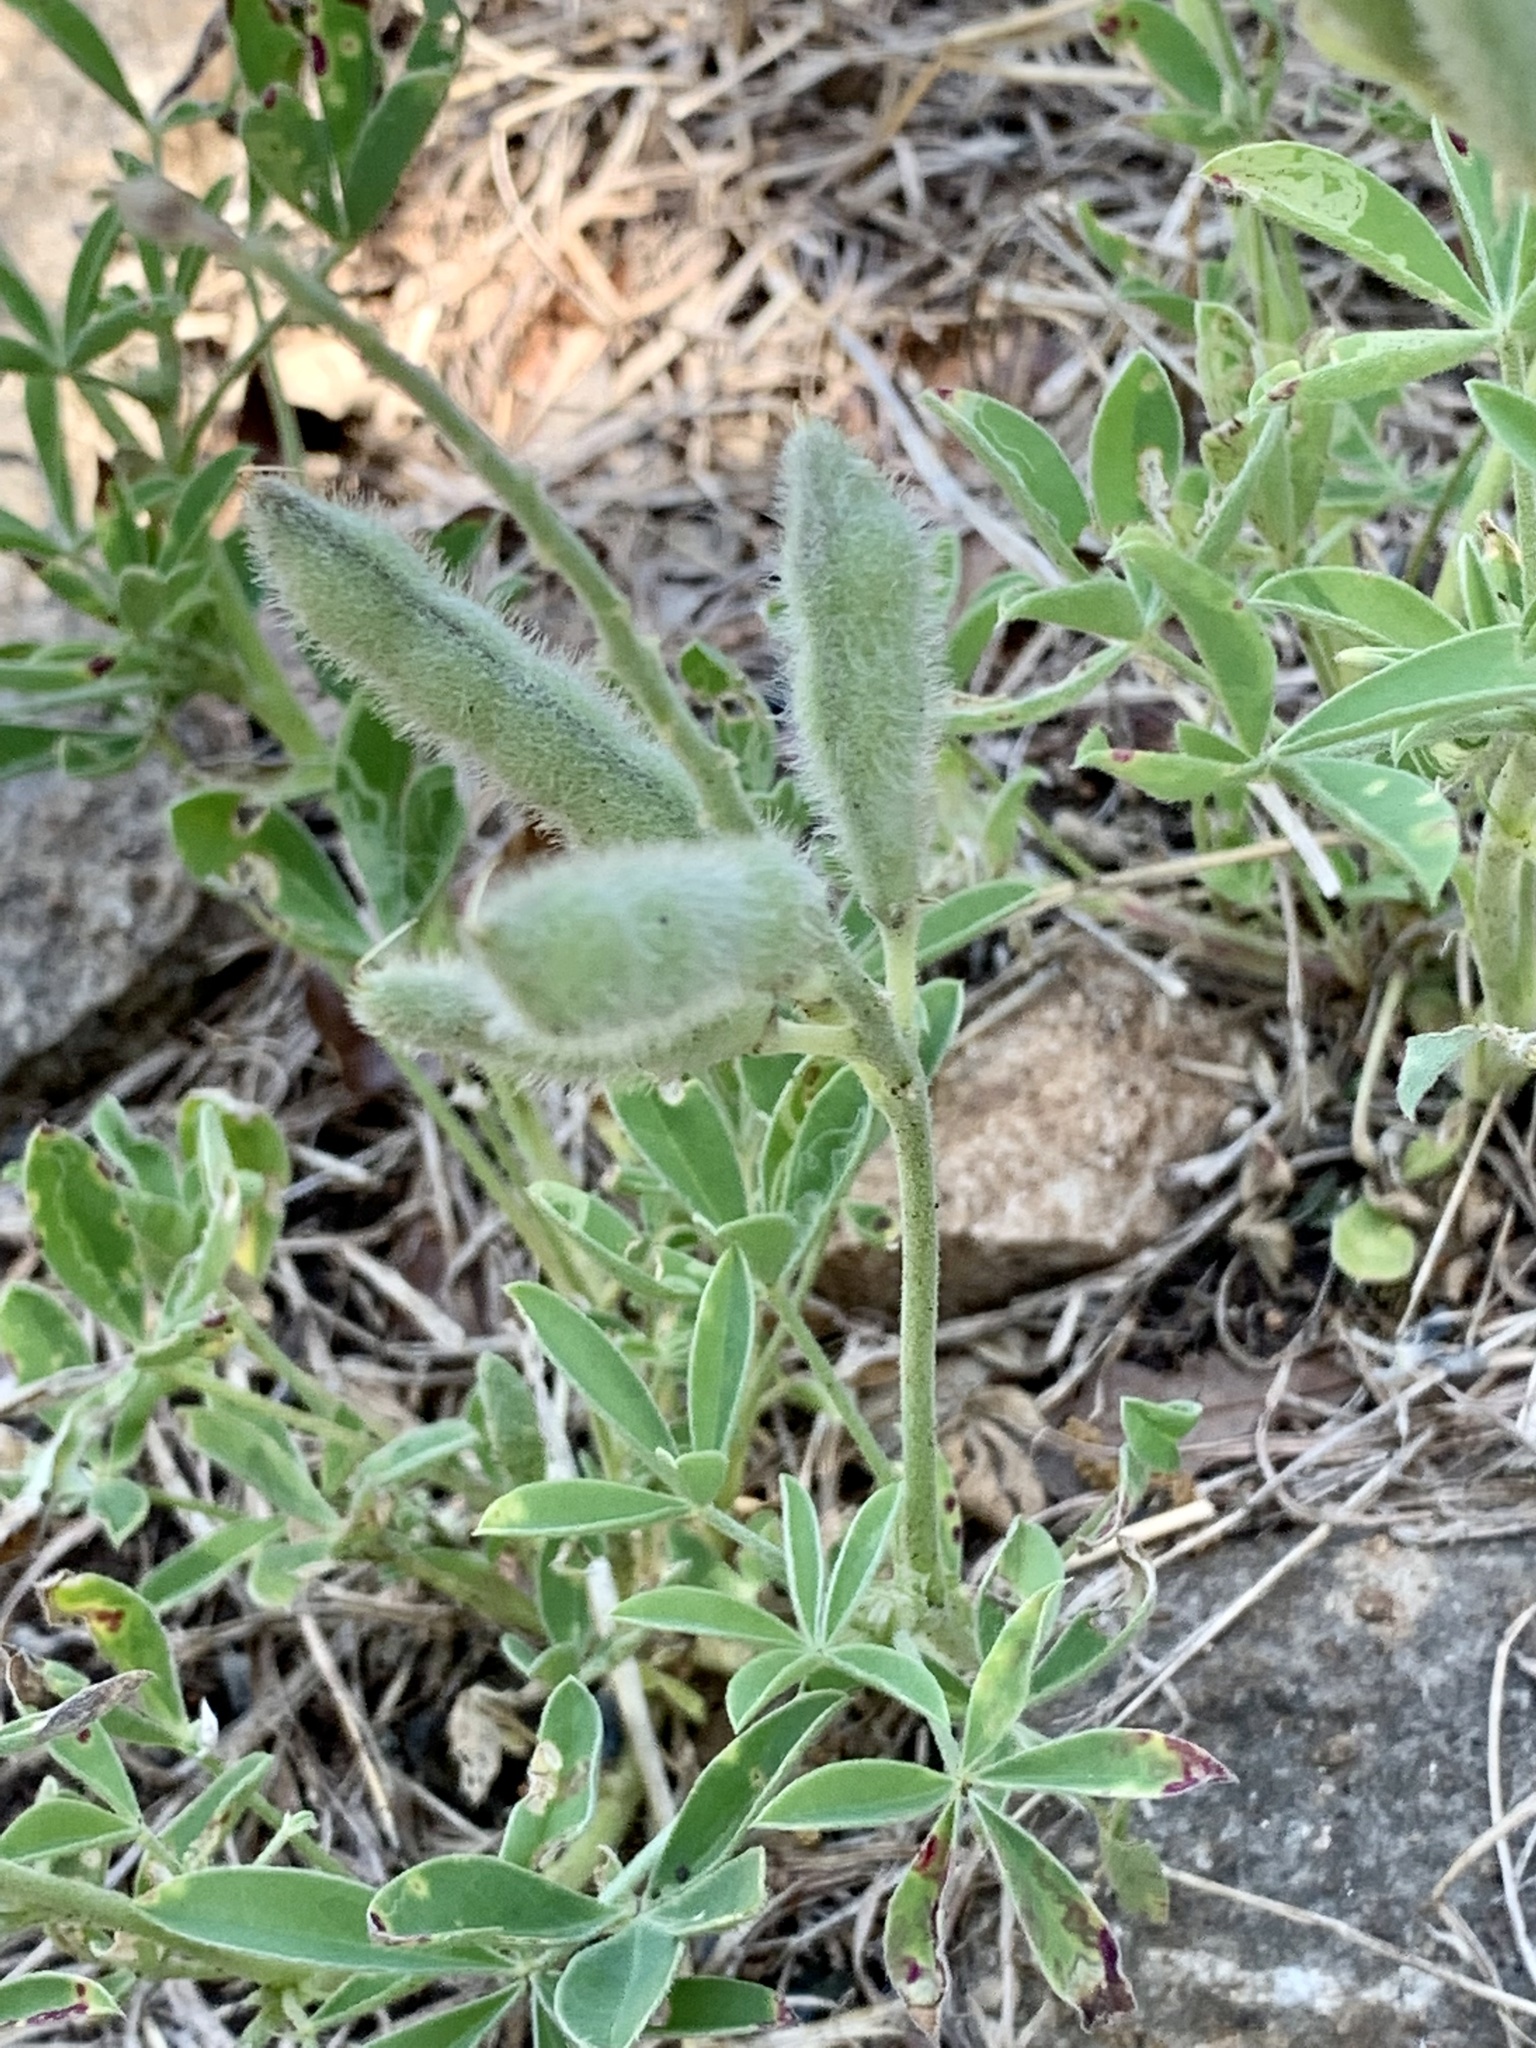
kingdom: Plantae
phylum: Tracheophyta
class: Magnoliopsida
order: Fabales
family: Fabaceae
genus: Lupinus
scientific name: Lupinus texensis
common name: Texas bluebonnet
